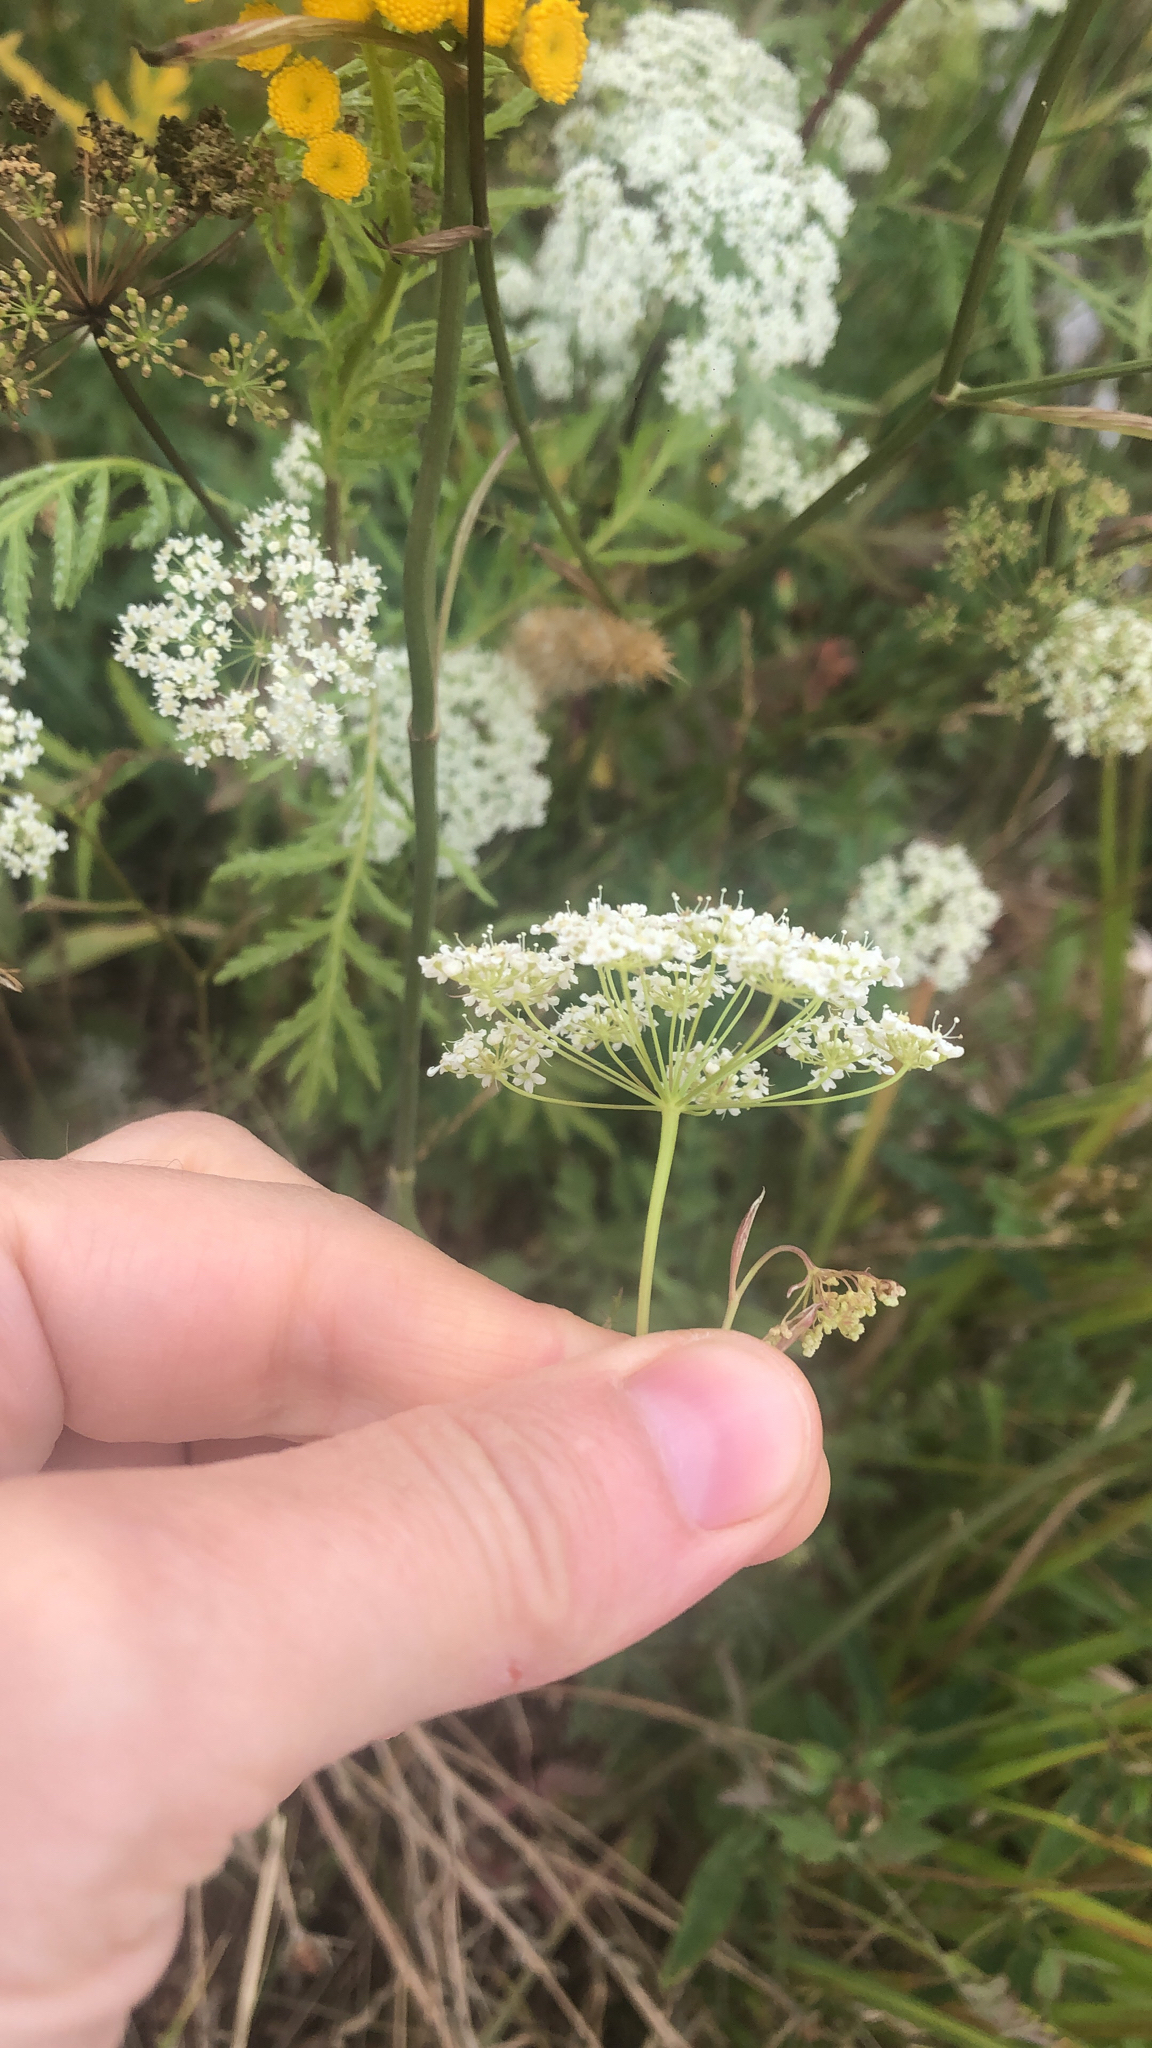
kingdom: Plantae
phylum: Tracheophyta
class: Magnoliopsida
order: Apiales
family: Apiaceae
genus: Pimpinella
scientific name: Pimpinella saxifraga
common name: Burnet-saxifrage
